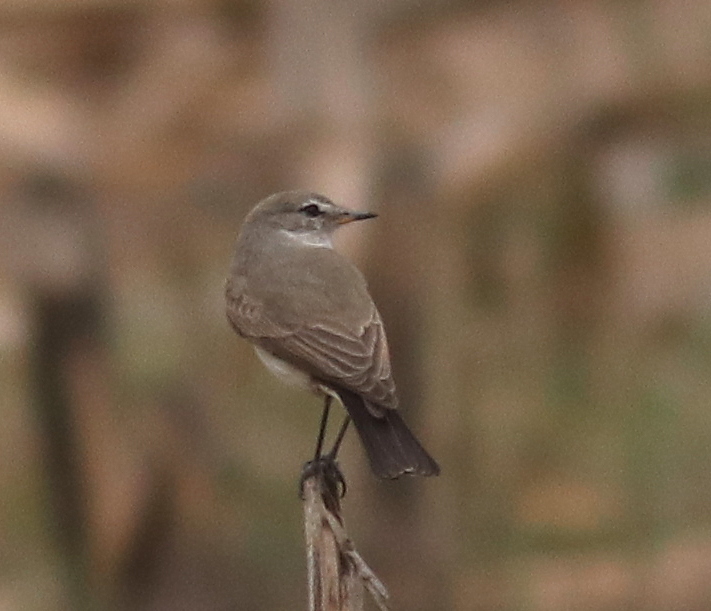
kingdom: Animalia
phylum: Chordata
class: Aves
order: Passeriformes
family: Tyrannidae
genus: Muscisaxicola
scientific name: Muscisaxicola maculirostris
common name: Spot-billed ground tyrant
